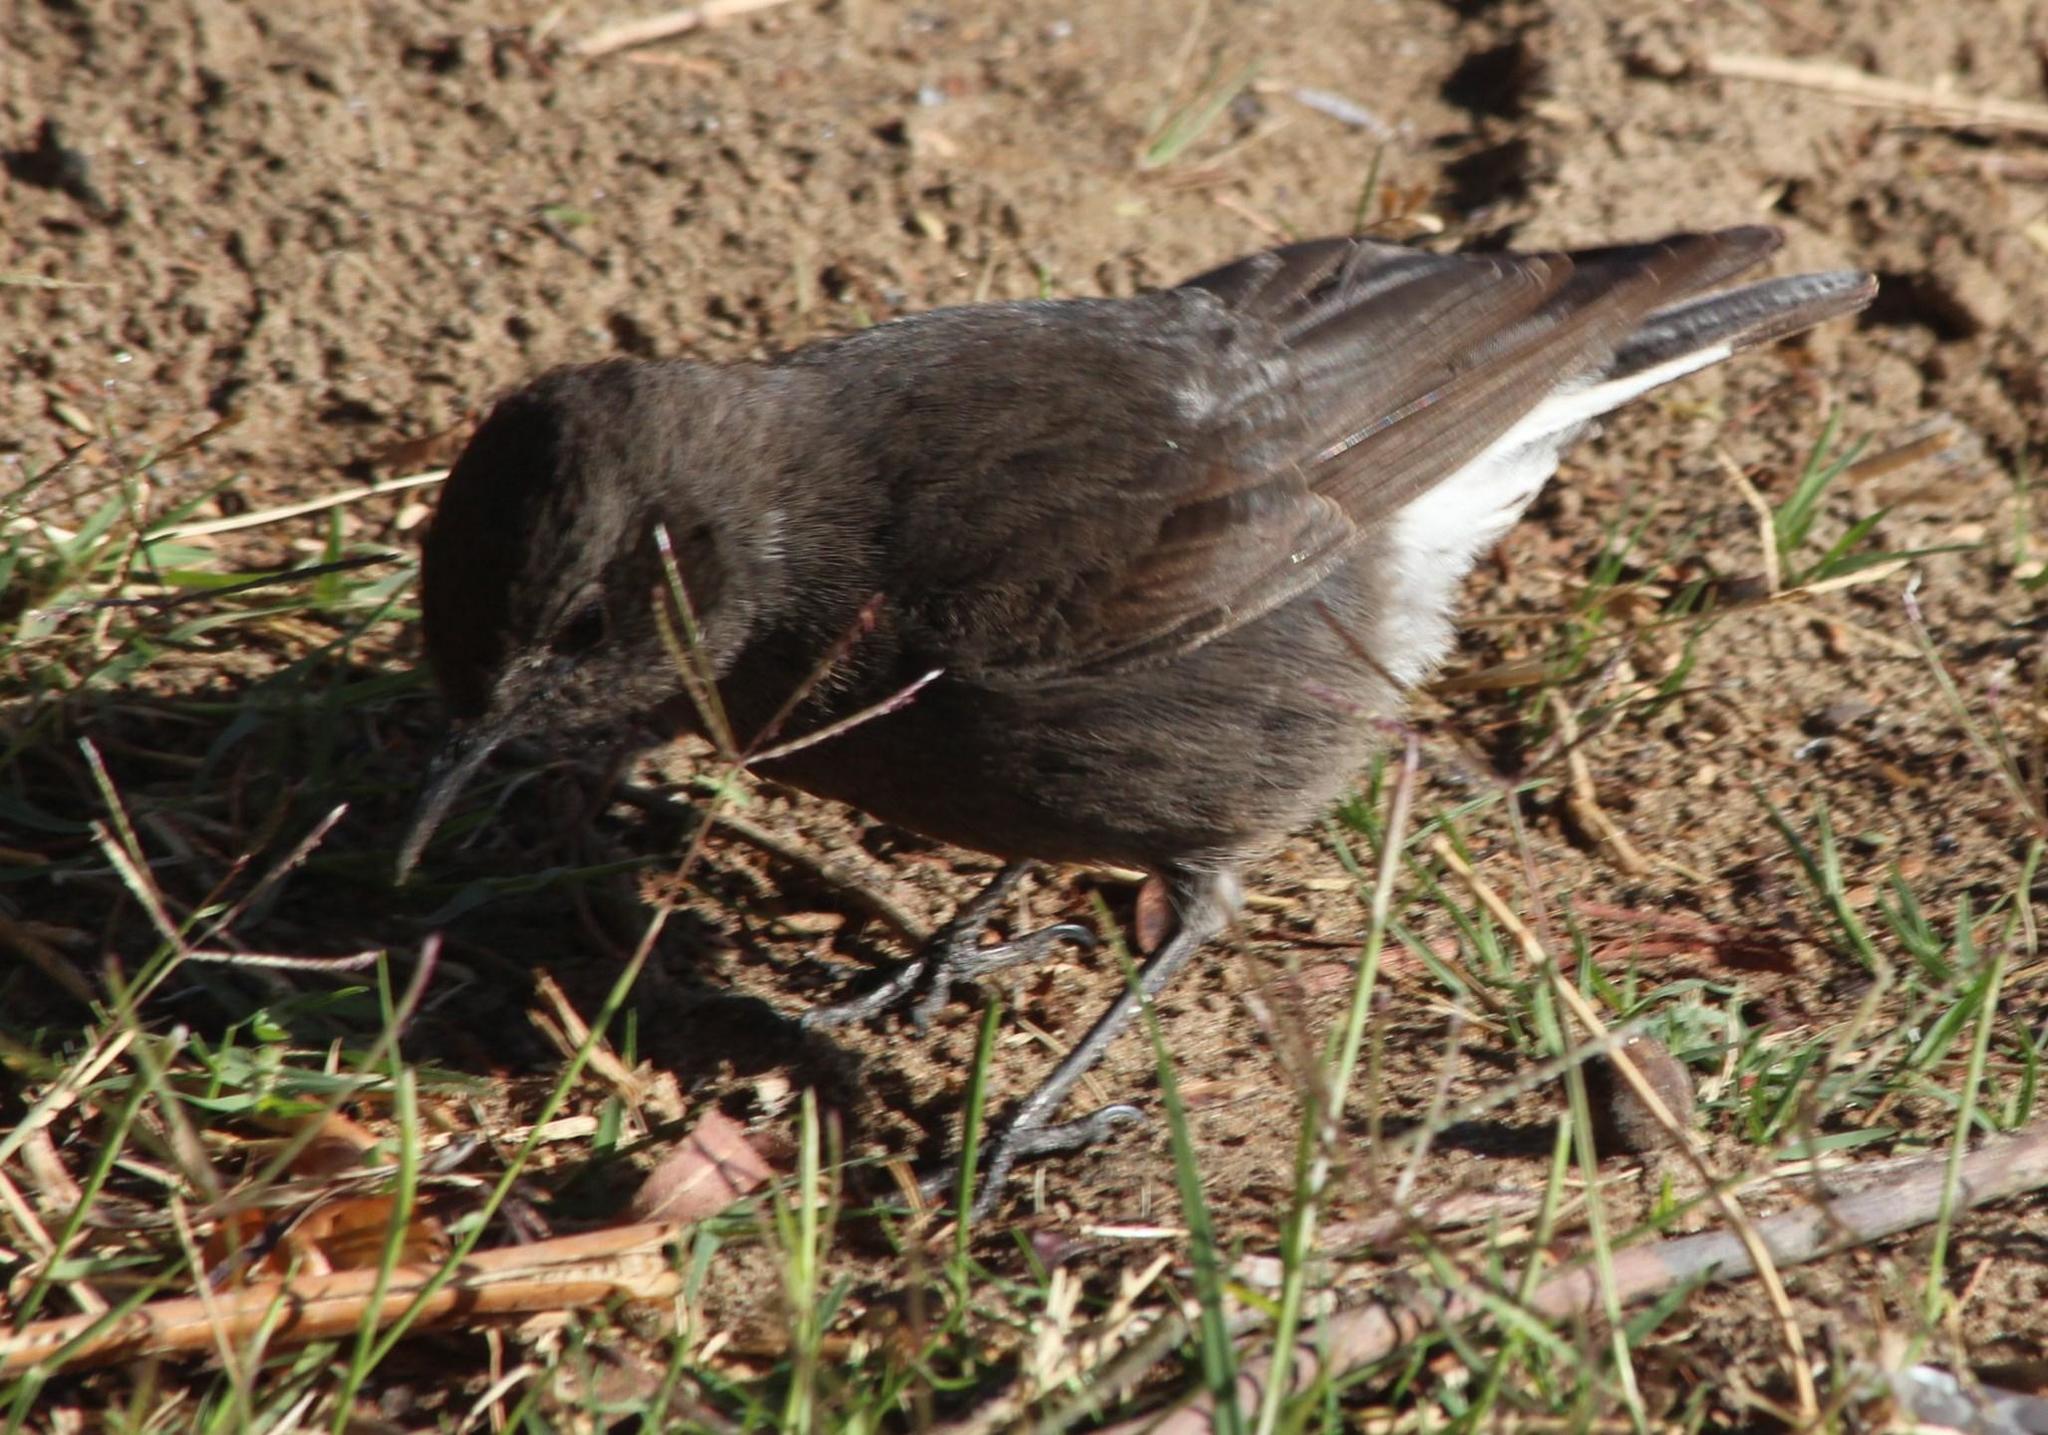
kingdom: Animalia
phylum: Chordata
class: Aves
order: Passeriformes
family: Muscicapidae
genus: Oenanthe
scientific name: Oenanthe monticola
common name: Mountain wheatear
